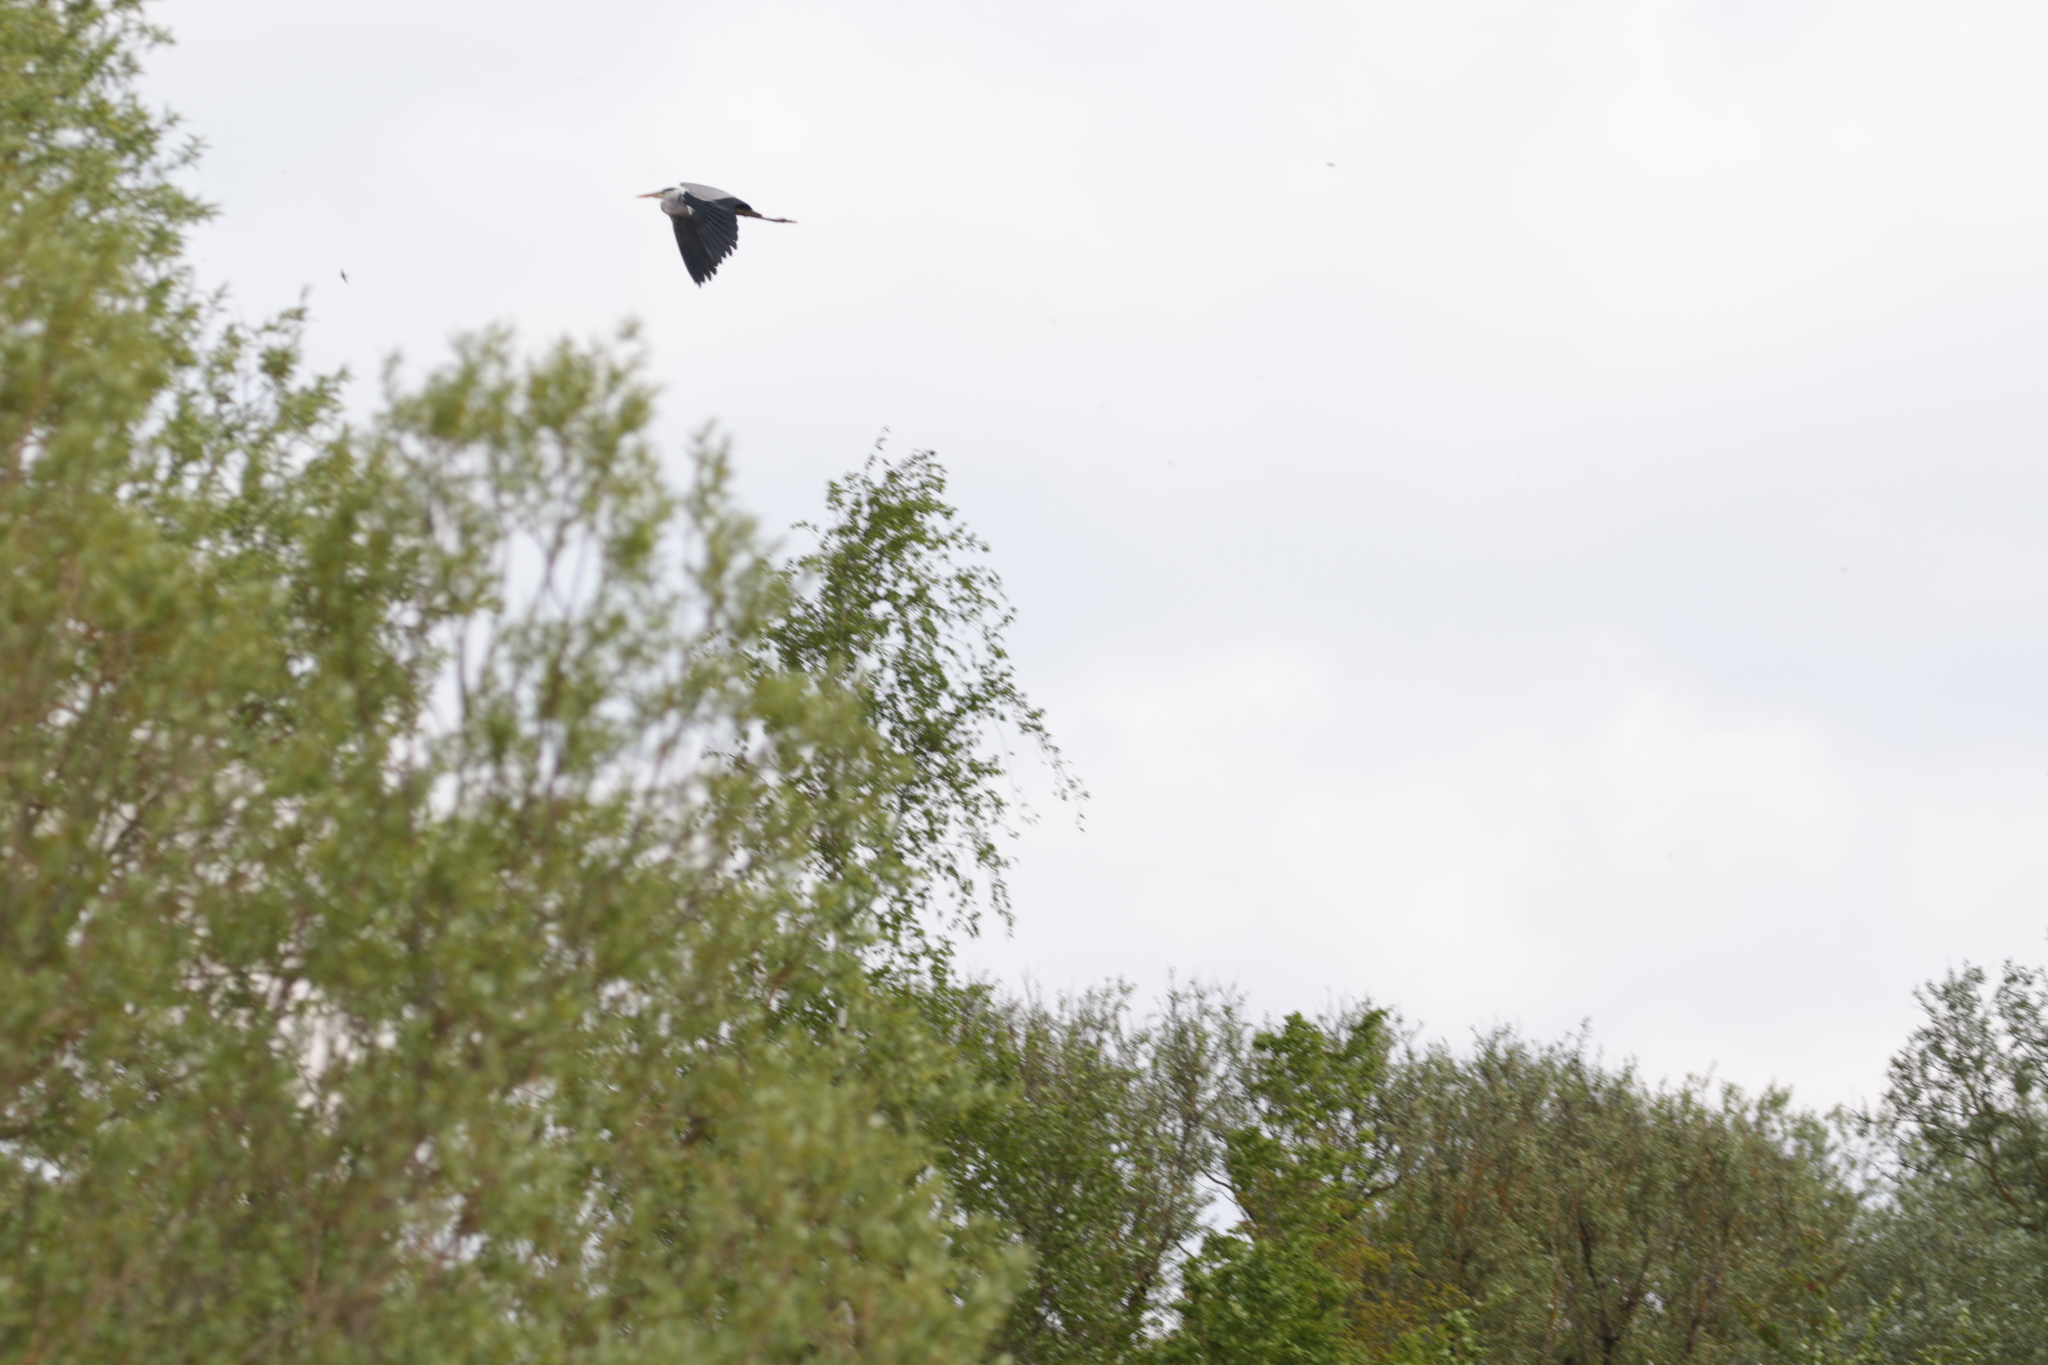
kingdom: Animalia
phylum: Chordata
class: Aves
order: Pelecaniformes
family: Ardeidae
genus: Ardea
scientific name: Ardea cinerea
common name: Grey heron
